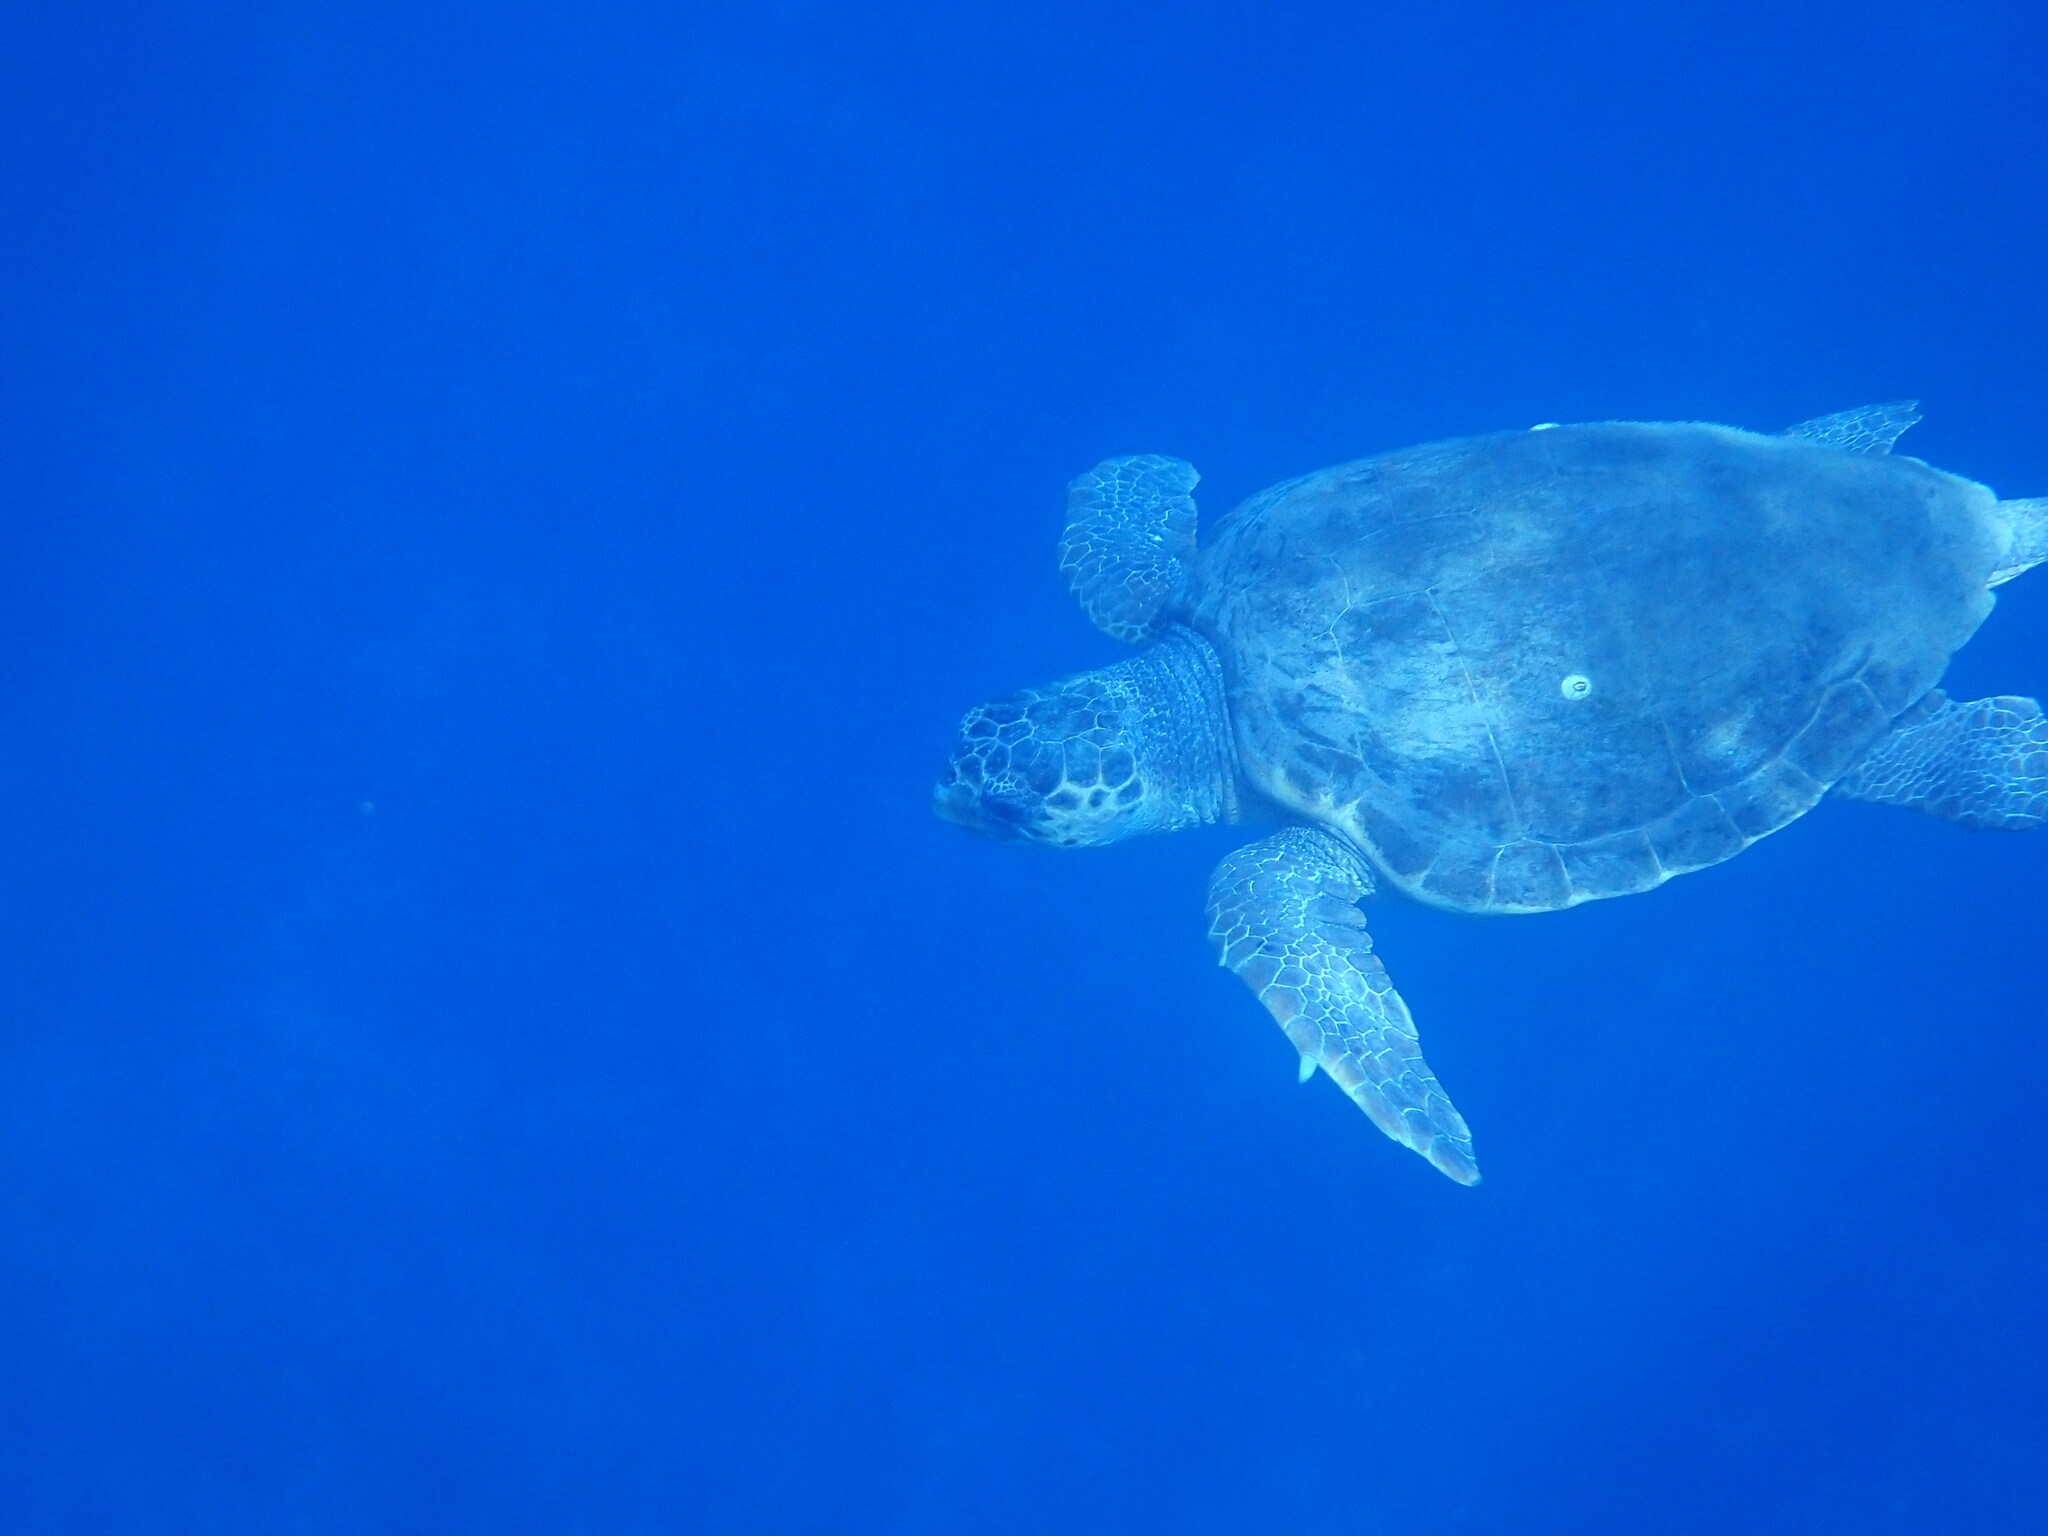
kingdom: Animalia
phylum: Chordata
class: Testudines
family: Cheloniidae
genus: Caretta
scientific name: Caretta caretta
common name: Loggerhead sea turtle
